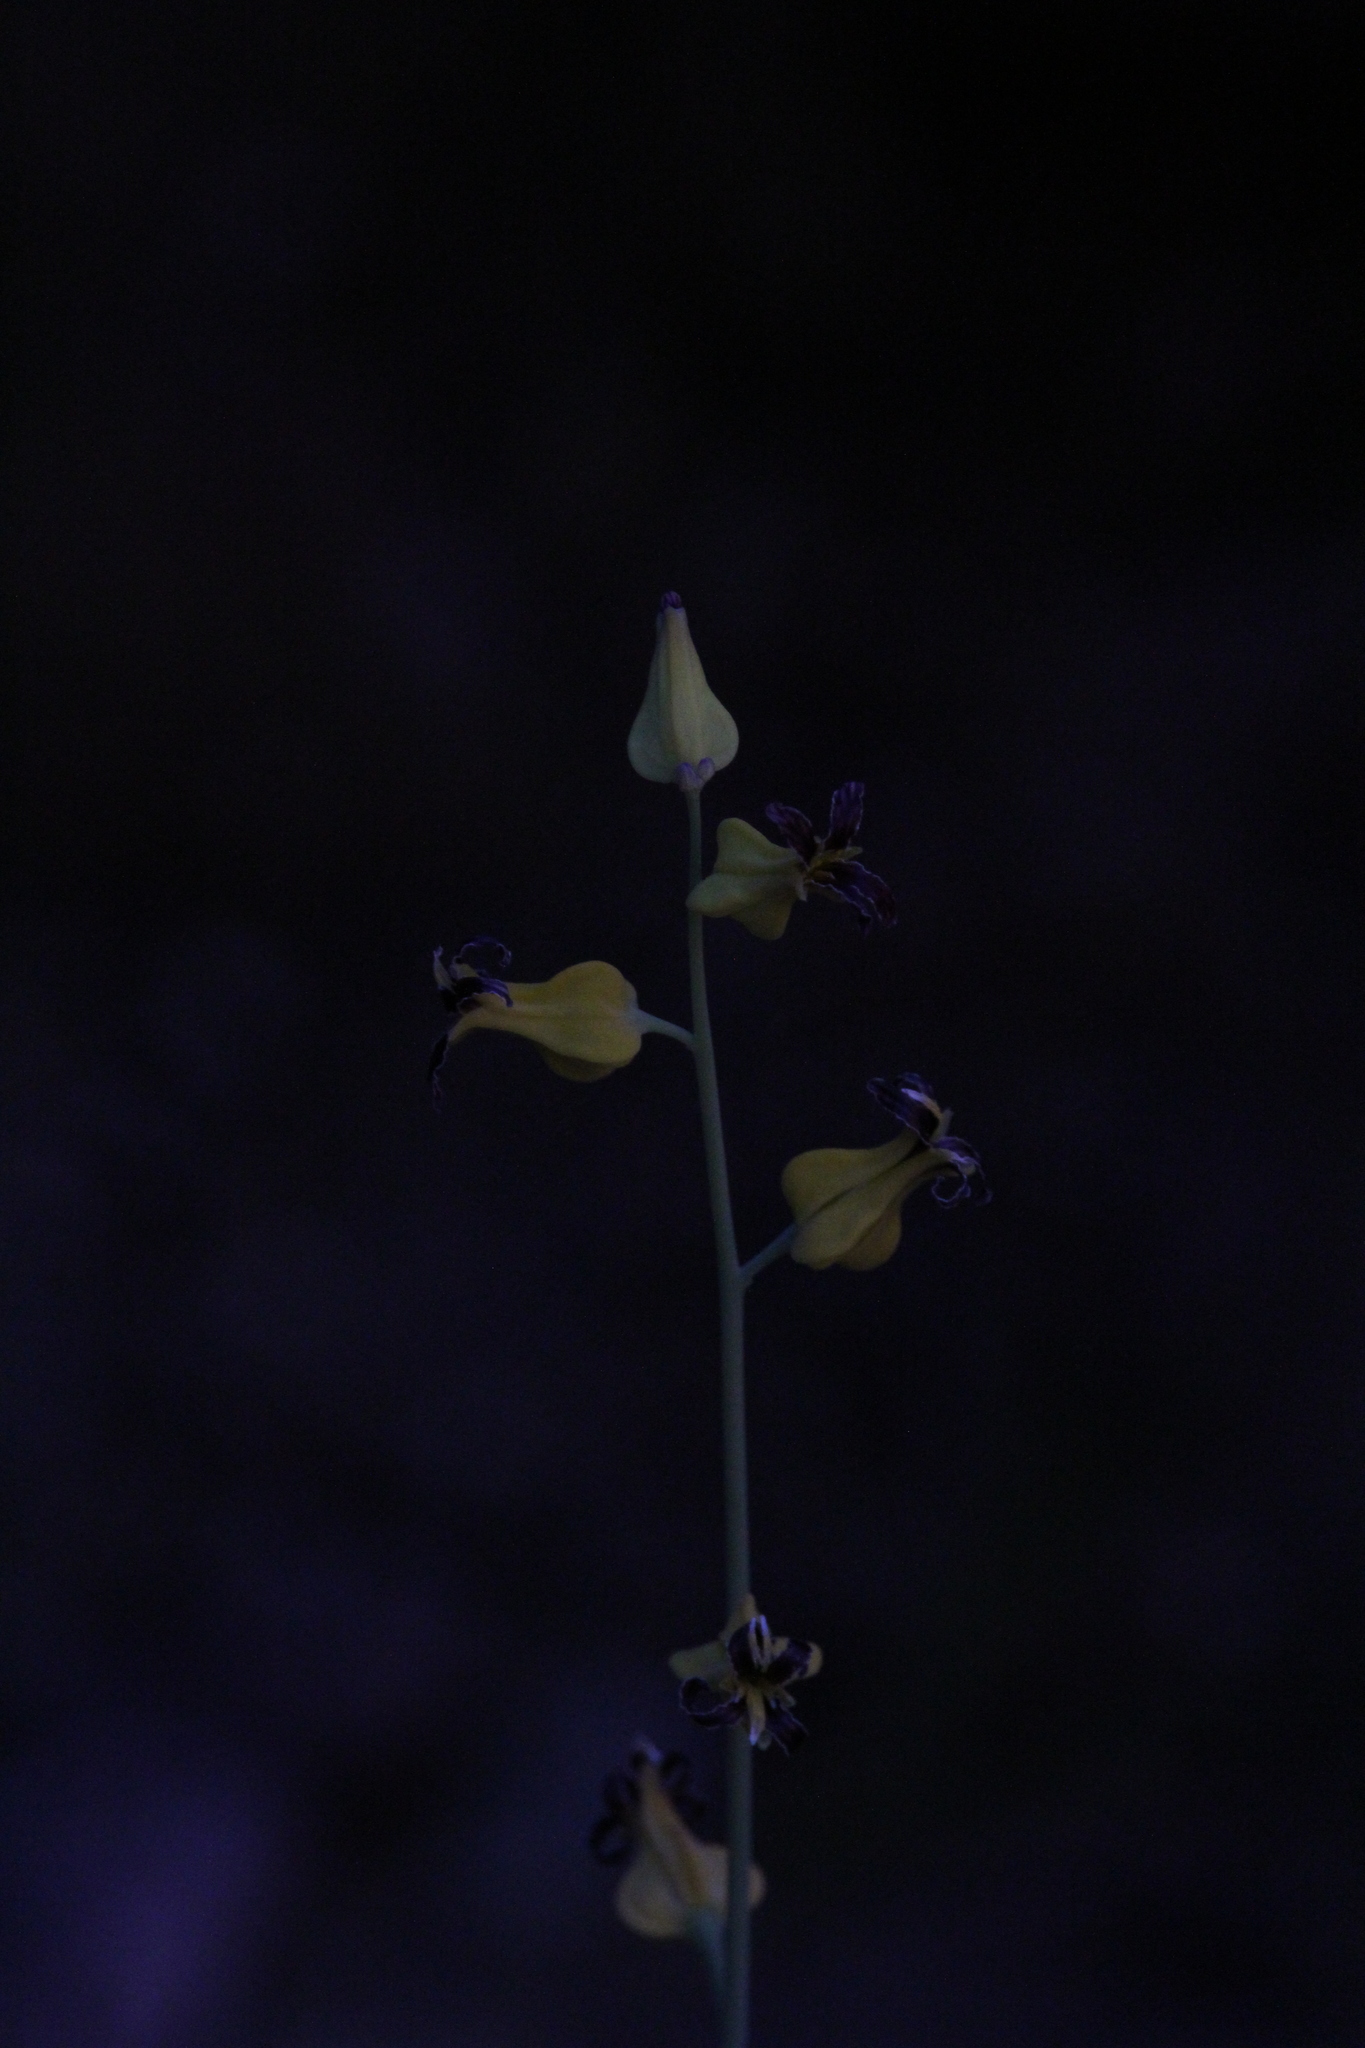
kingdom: Plantae
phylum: Tracheophyta
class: Magnoliopsida
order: Brassicales
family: Brassicaceae
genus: Streptanthus
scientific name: Streptanthus carinatus
